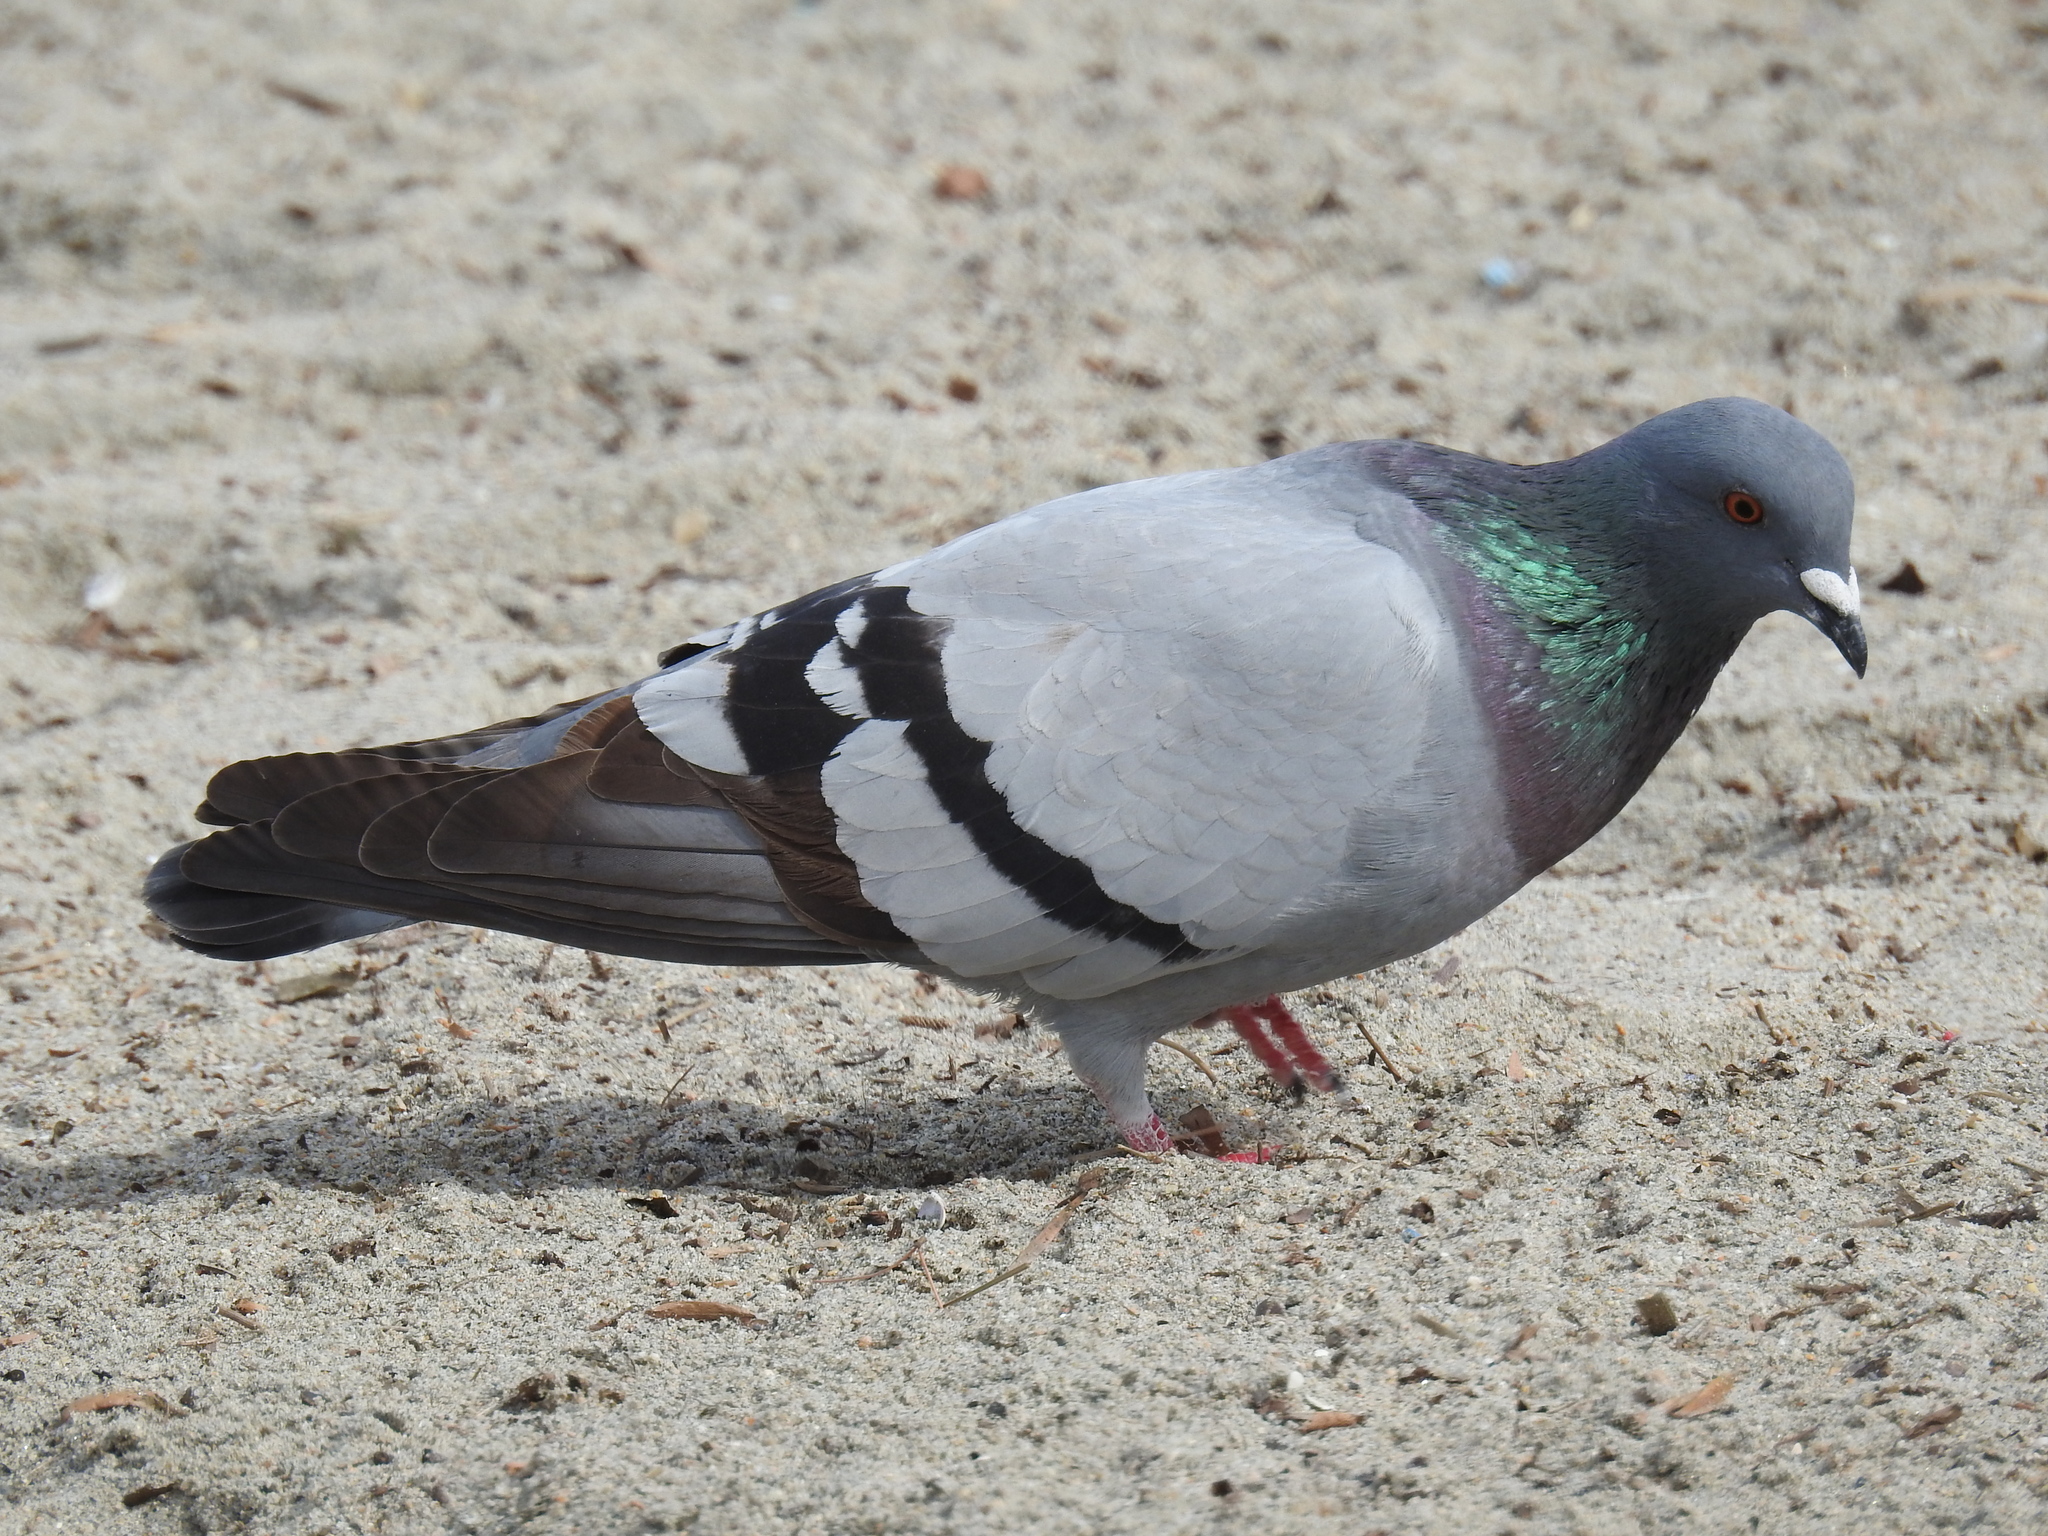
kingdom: Animalia
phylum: Chordata
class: Aves
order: Columbiformes
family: Columbidae
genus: Columba
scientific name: Columba livia
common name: Rock pigeon
